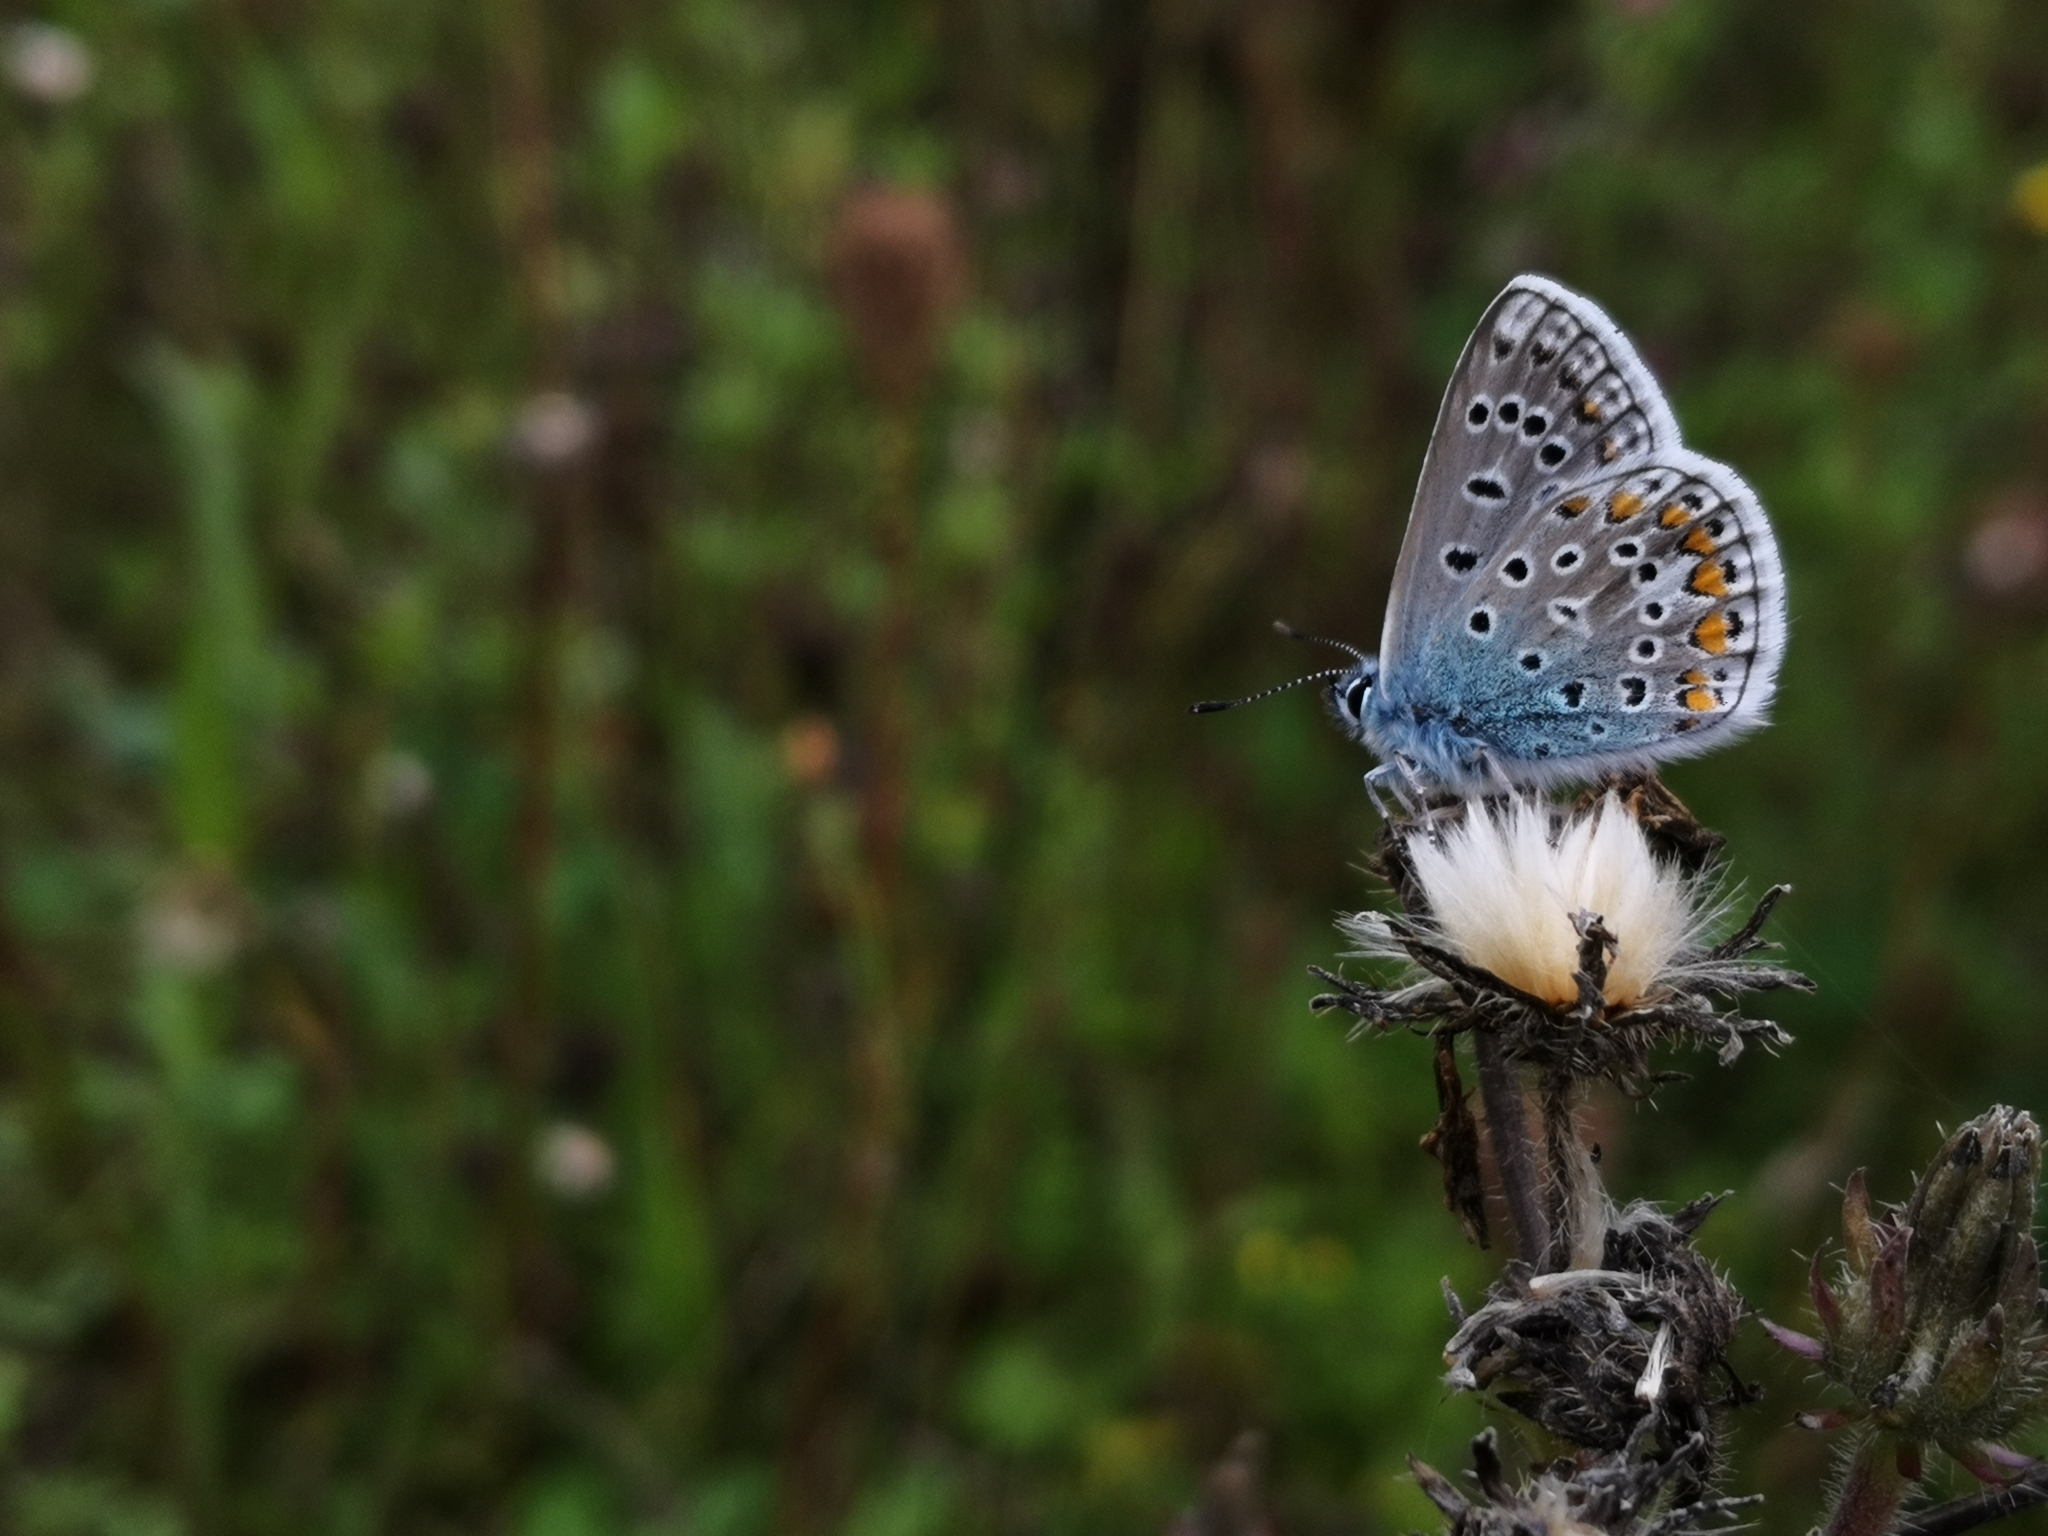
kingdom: Animalia
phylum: Arthropoda
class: Insecta
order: Lepidoptera
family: Lycaenidae
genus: Polyommatus
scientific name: Polyommatus icarus
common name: Common blue
